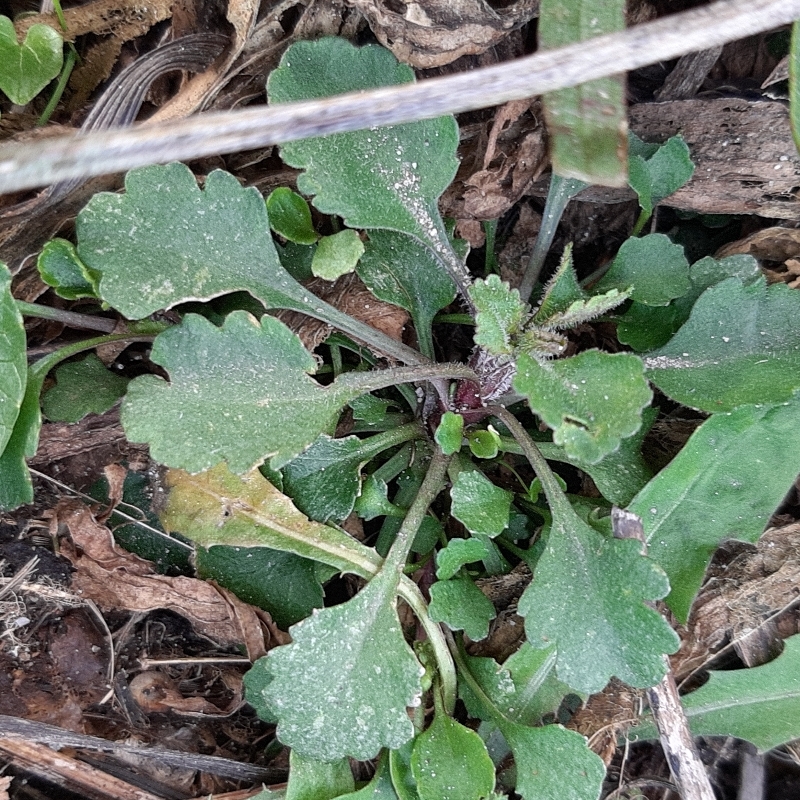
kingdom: Plantae
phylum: Tracheophyta
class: Magnoliopsida
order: Asterales
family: Asteraceae
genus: Leucanthemum
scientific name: Leucanthemum vulgare
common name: Oxeye daisy
